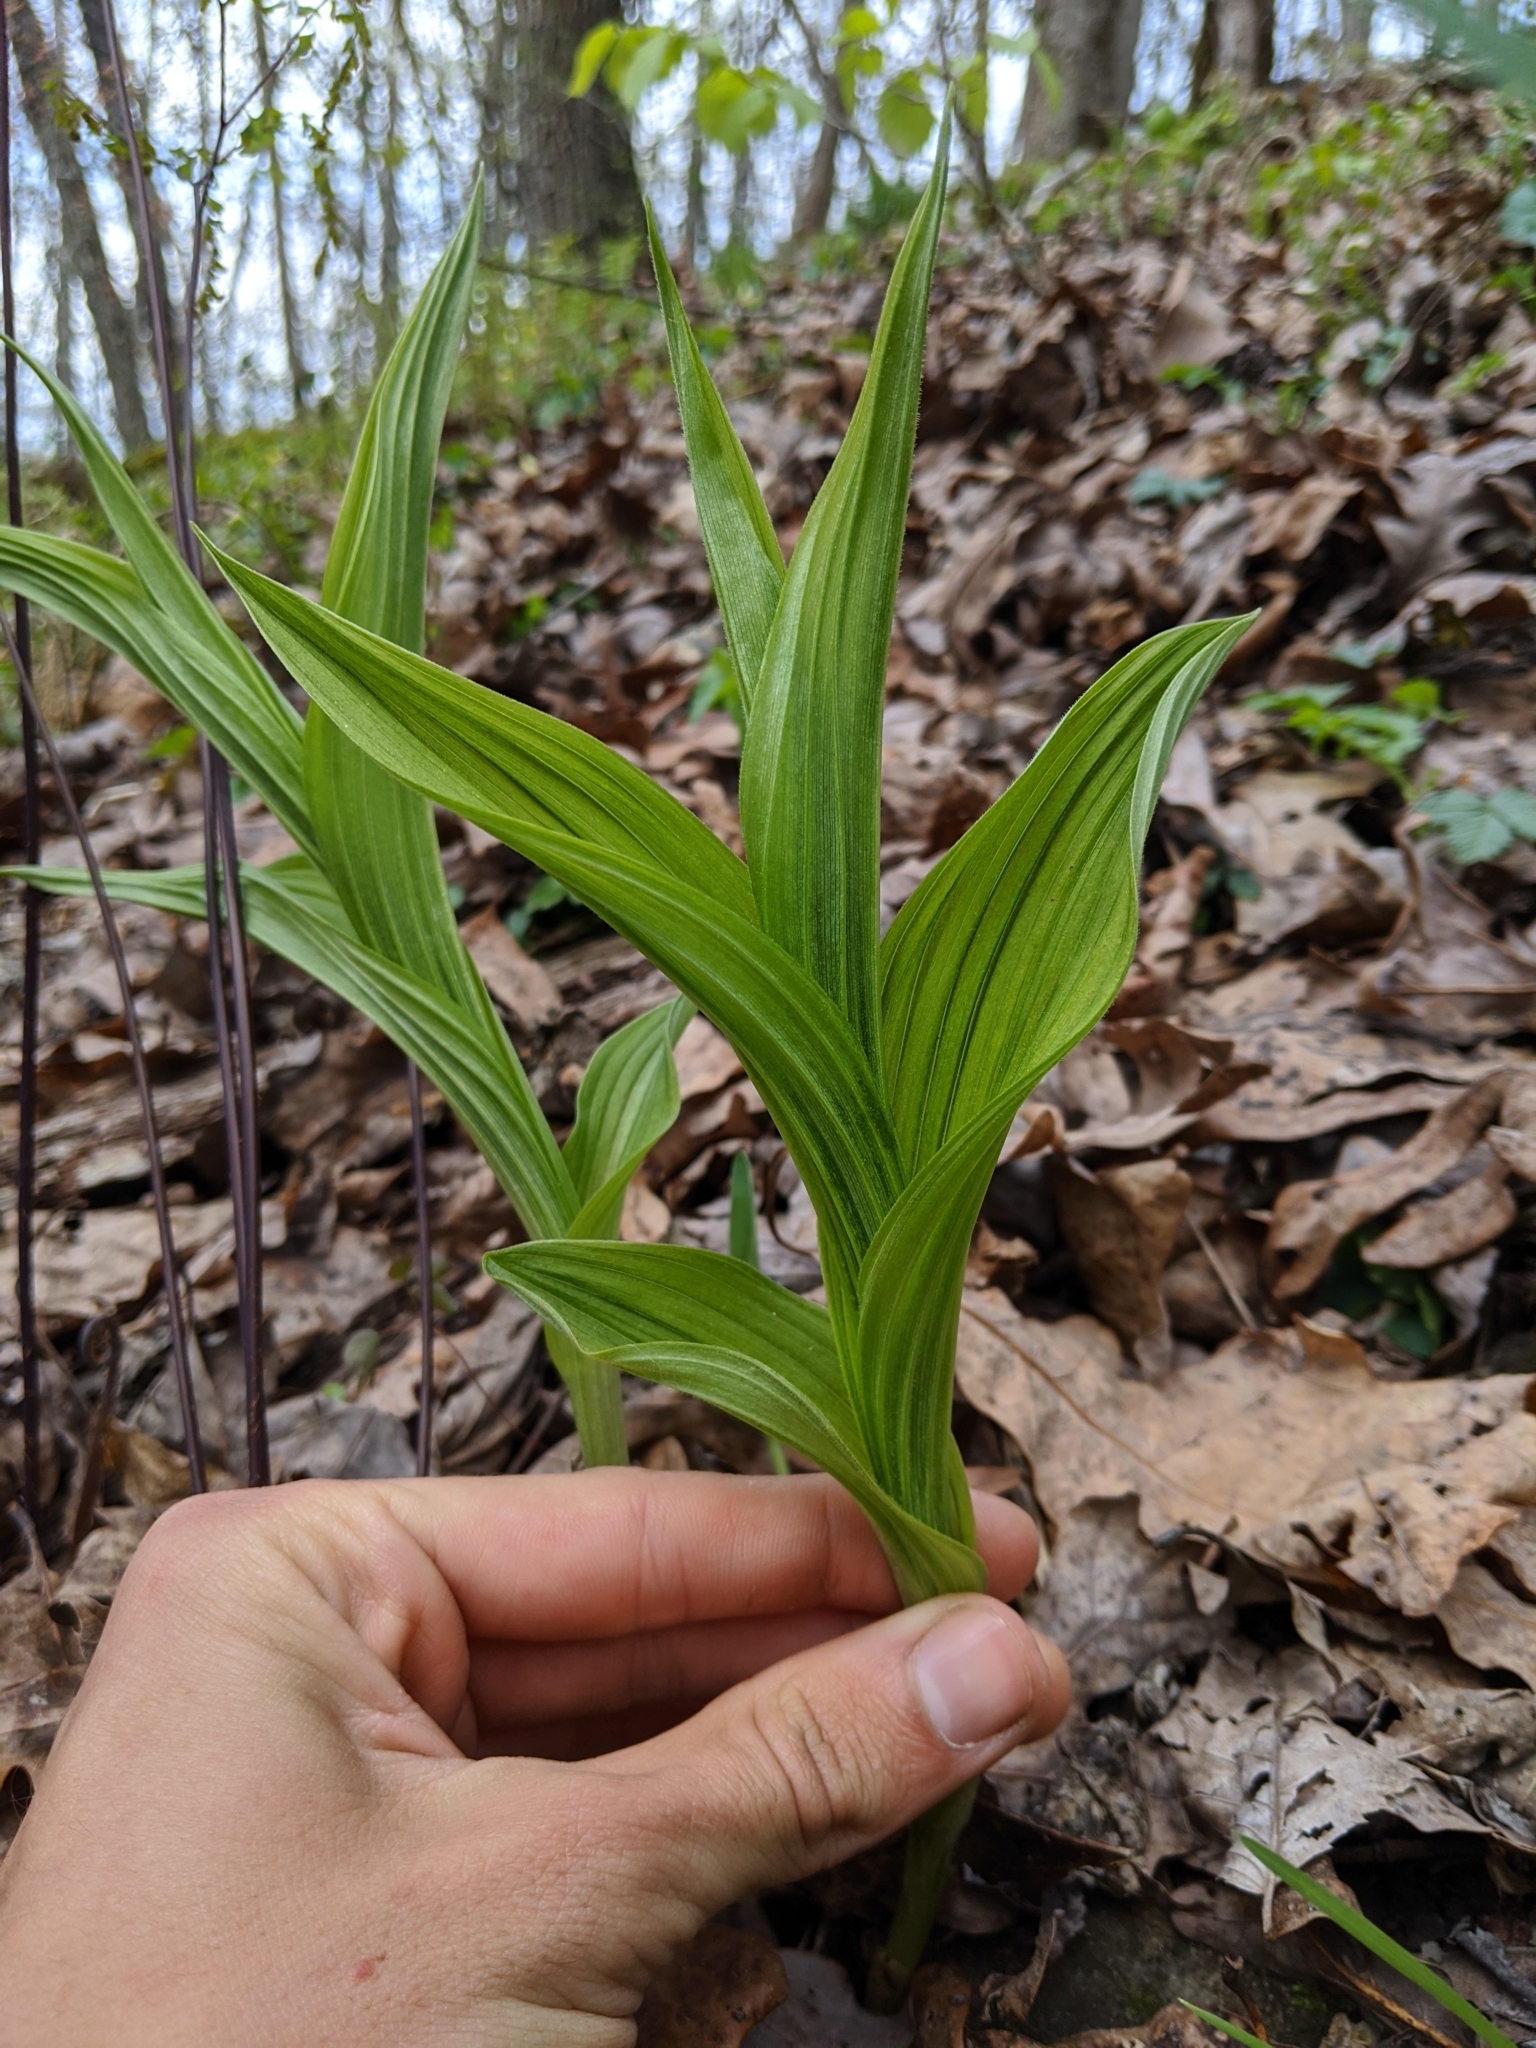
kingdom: Plantae
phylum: Tracheophyta
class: Liliopsida
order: Asparagales
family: Orchidaceae
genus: Cypripedium
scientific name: Cypripedium parviflorum
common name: American yellow lady's-slipper
